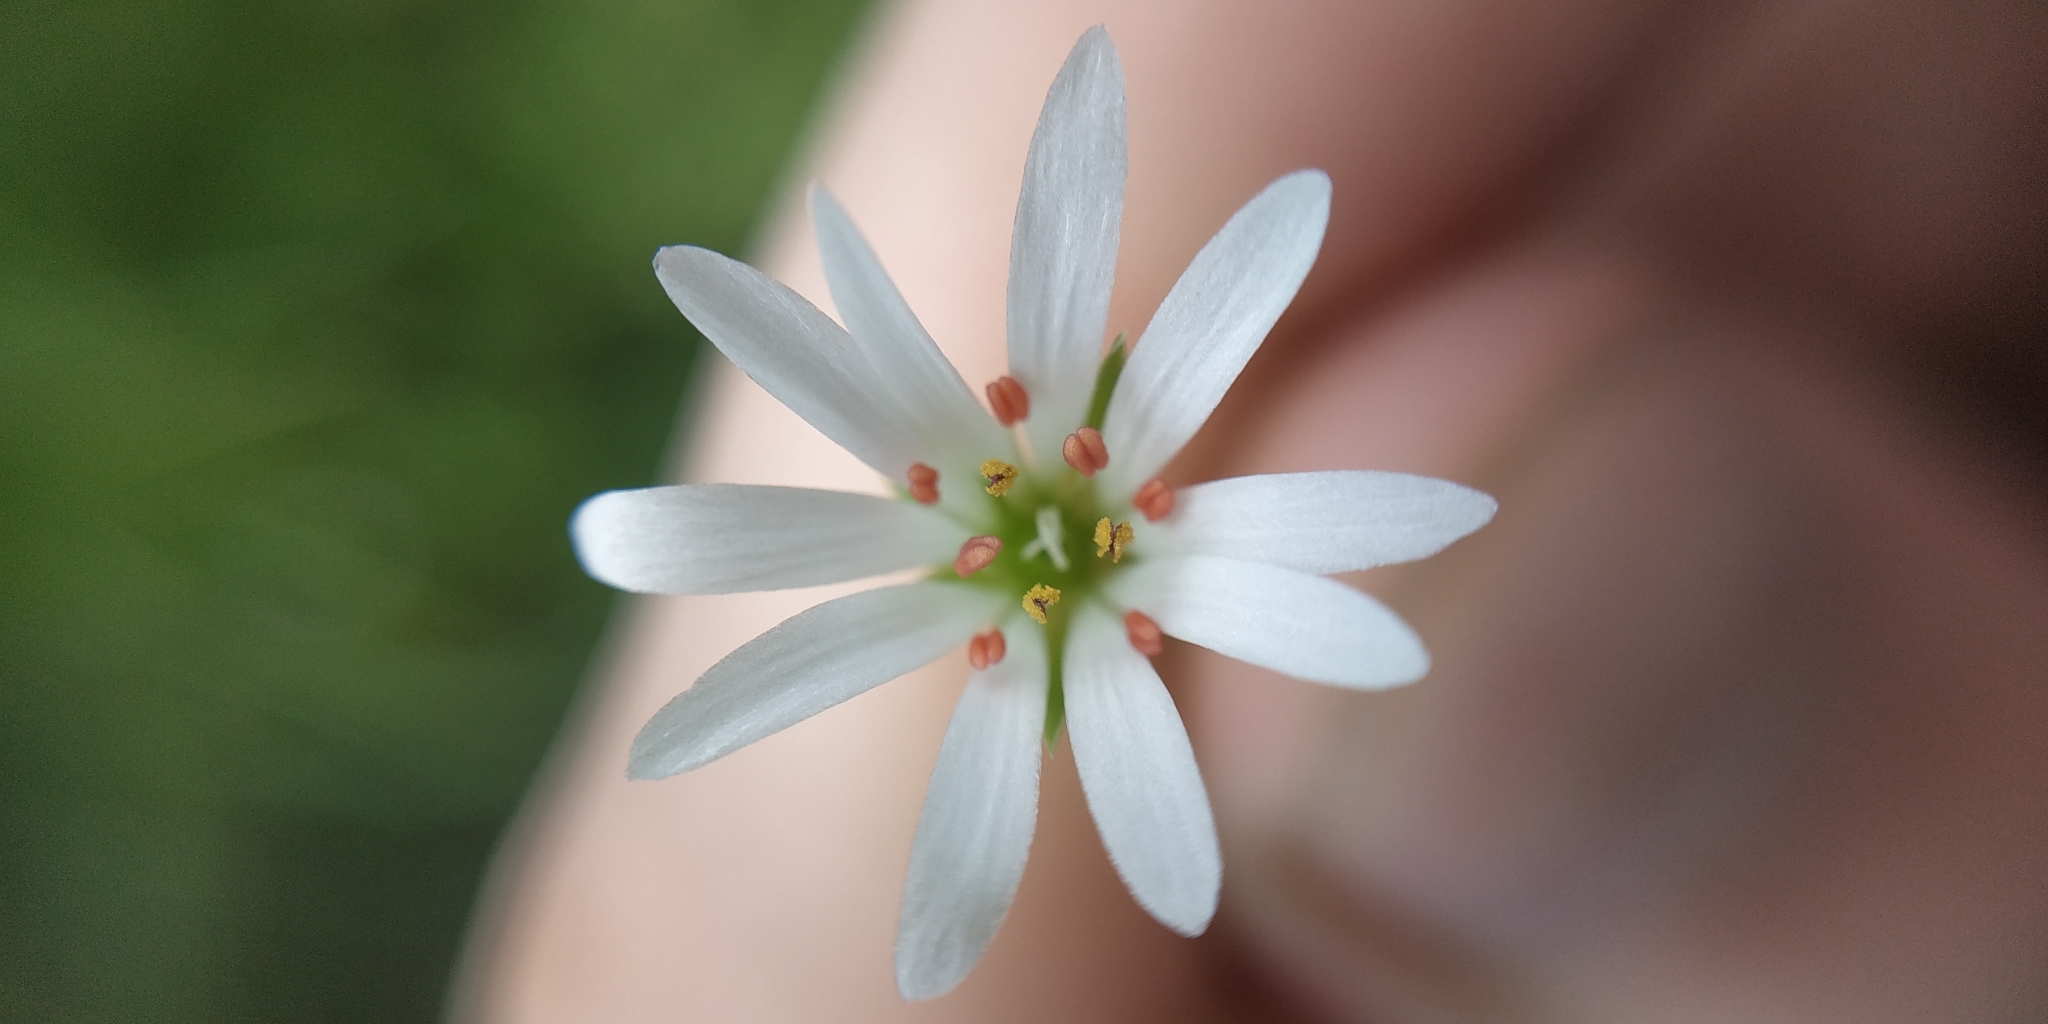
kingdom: Plantae
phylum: Tracheophyta
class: Magnoliopsida
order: Caryophyllales
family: Caryophyllaceae
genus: Stellaria
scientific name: Stellaria palustris
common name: Marsh stitchwort
